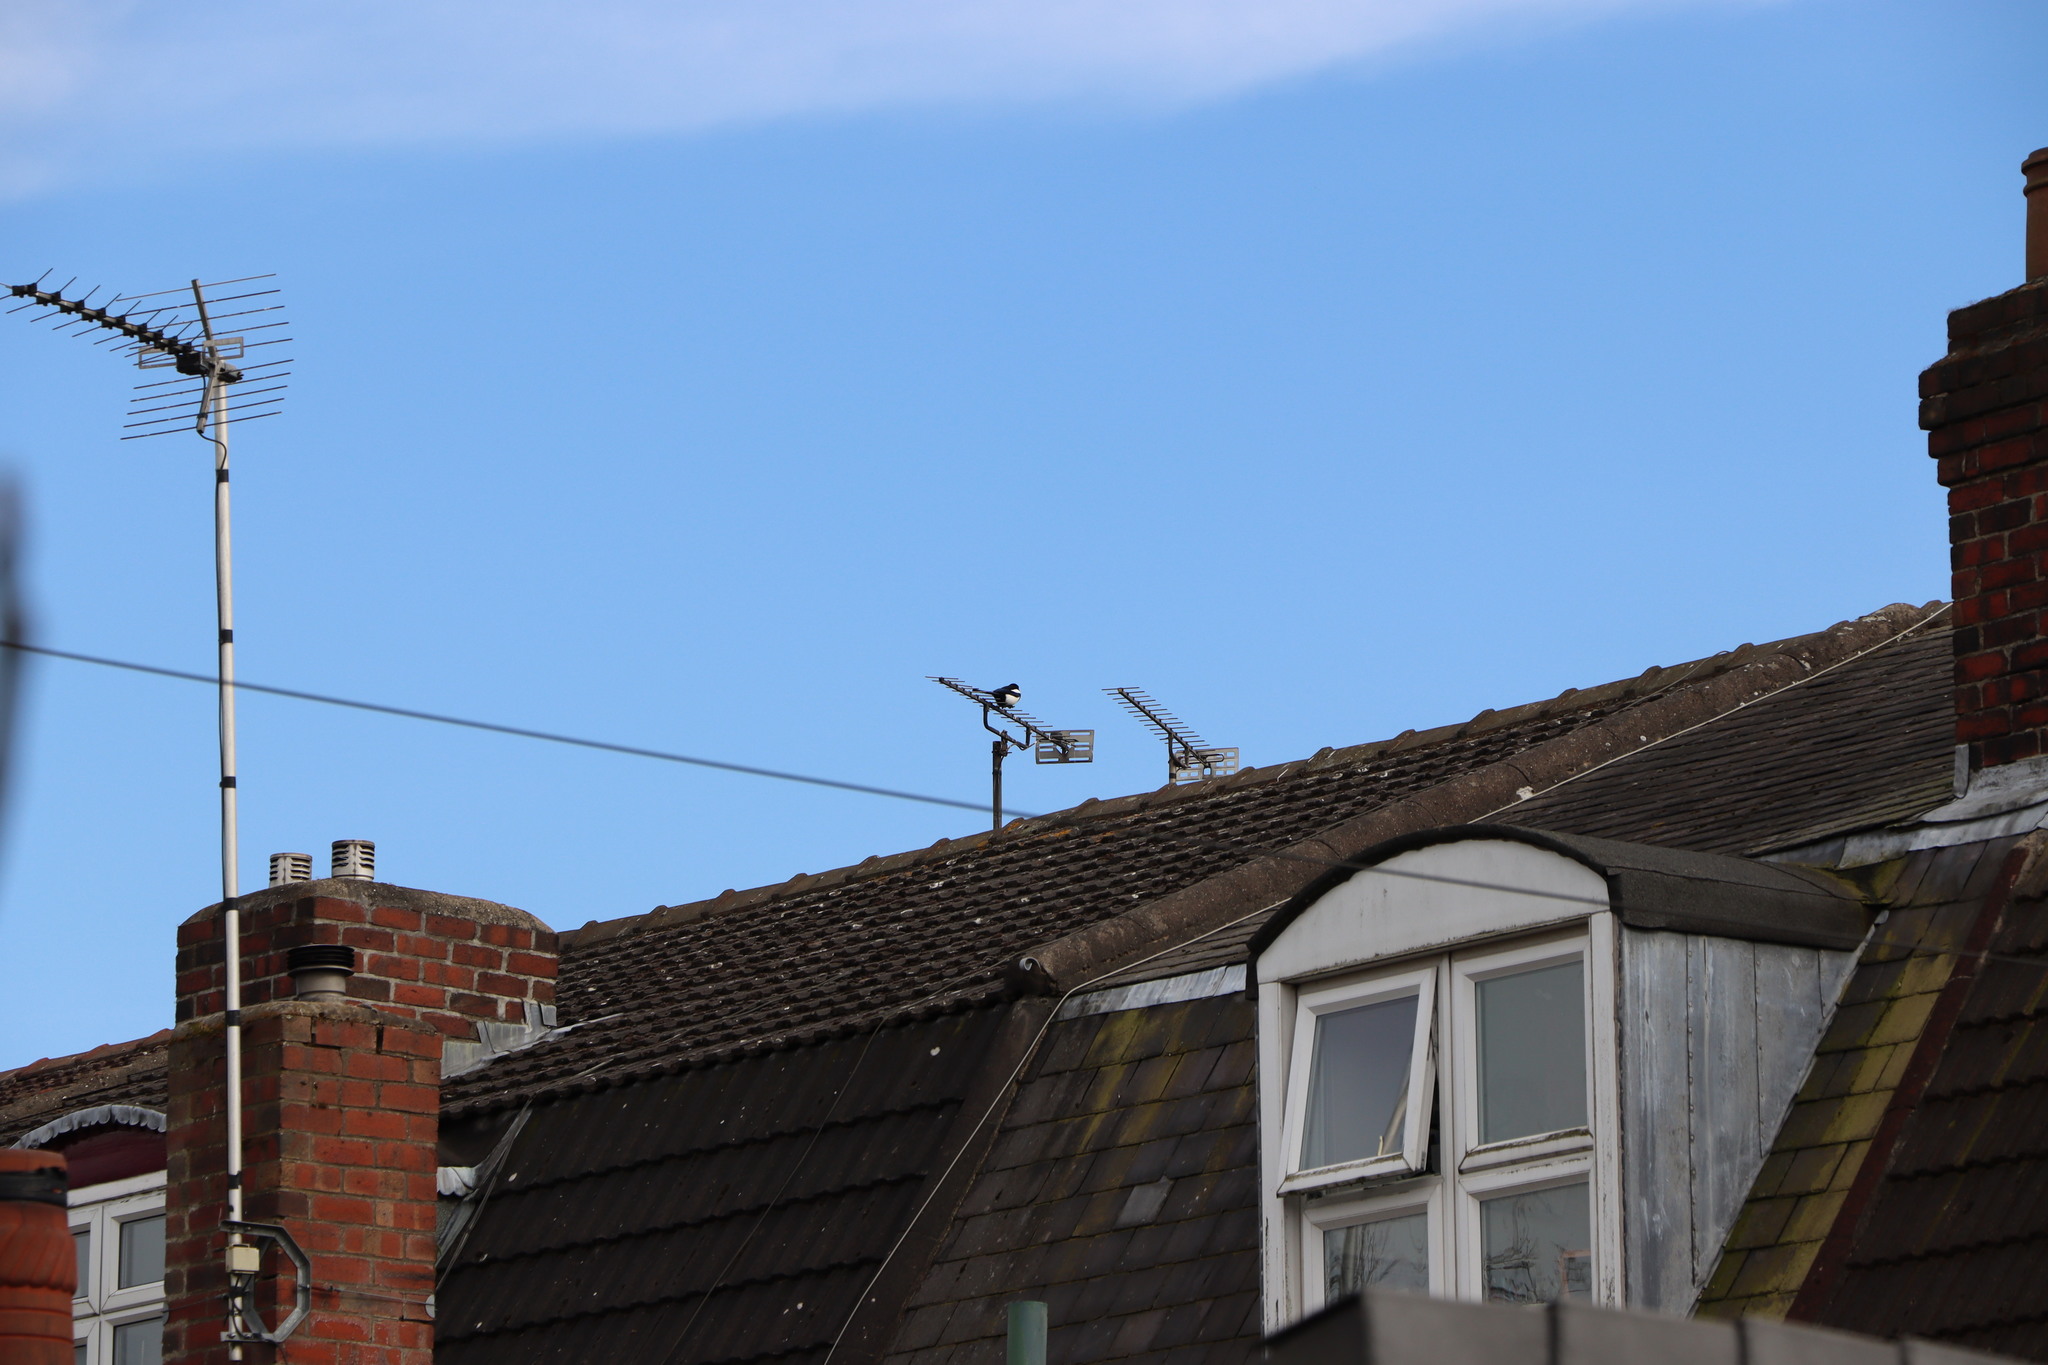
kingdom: Animalia
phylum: Chordata
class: Aves
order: Passeriformes
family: Corvidae
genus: Pica
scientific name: Pica pica
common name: Eurasian magpie
